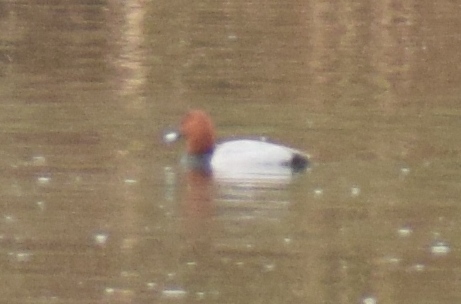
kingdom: Animalia
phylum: Chordata
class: Aves
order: Anseriformes
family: Anatidae
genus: Aythya
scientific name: Aythya ferina
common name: Common pochard
